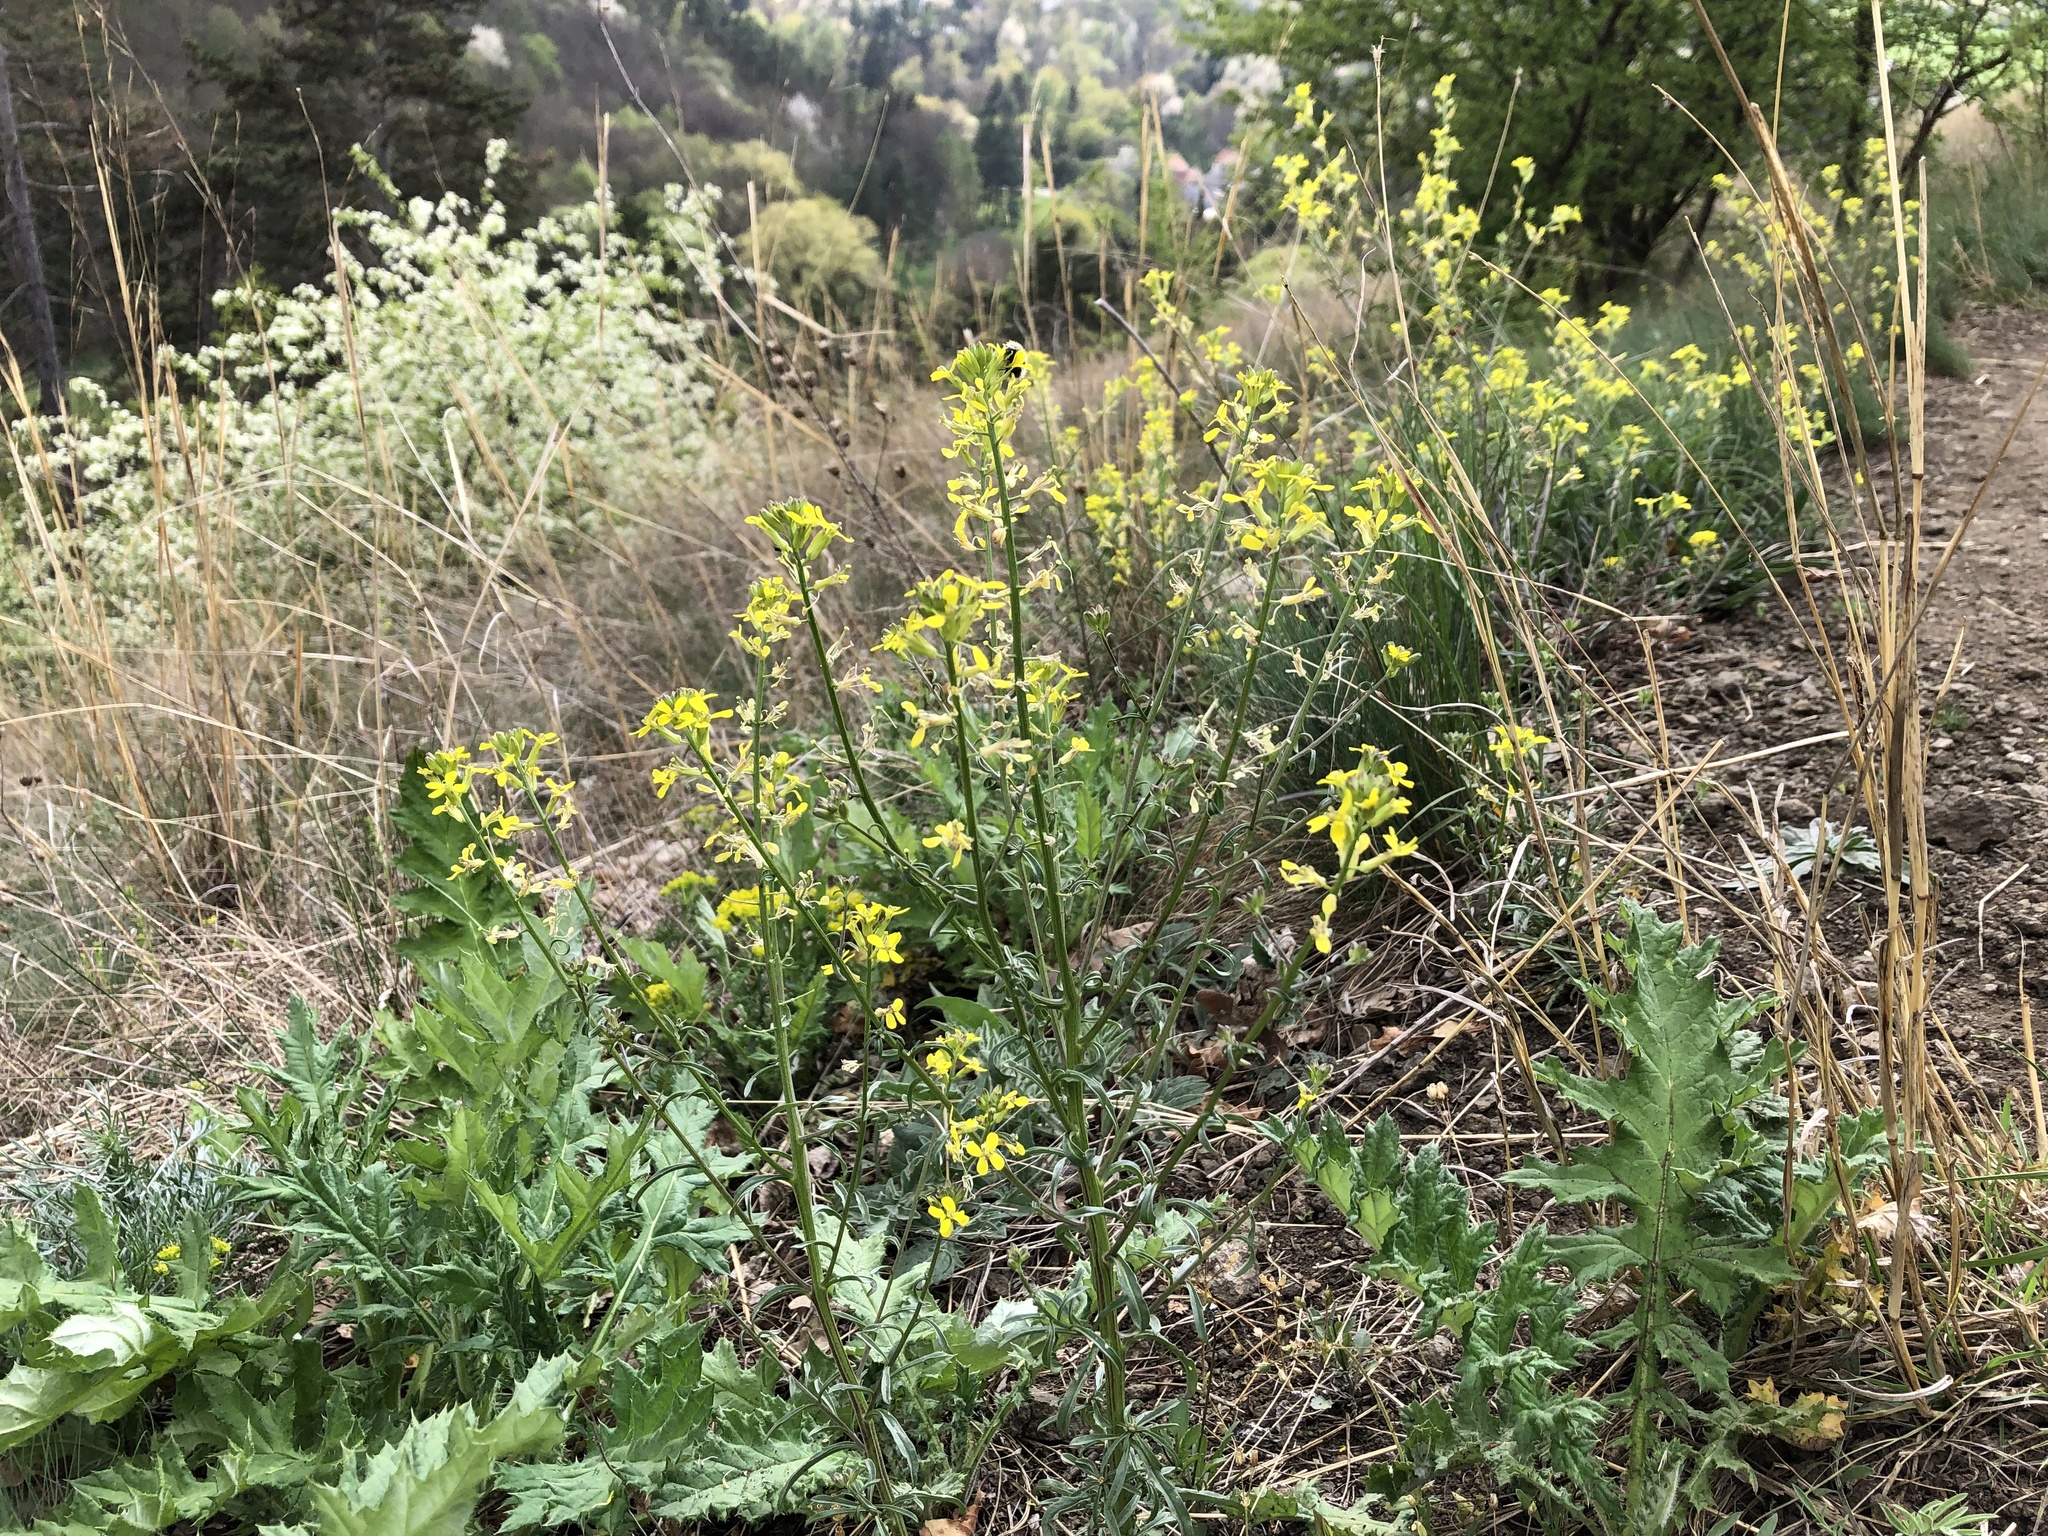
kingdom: Plantae
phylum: Tracheophyta
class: Magnoliopsida
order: Brassicales
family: Brassicaceae
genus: Erysimum
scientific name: Erysimum crepidifolium
